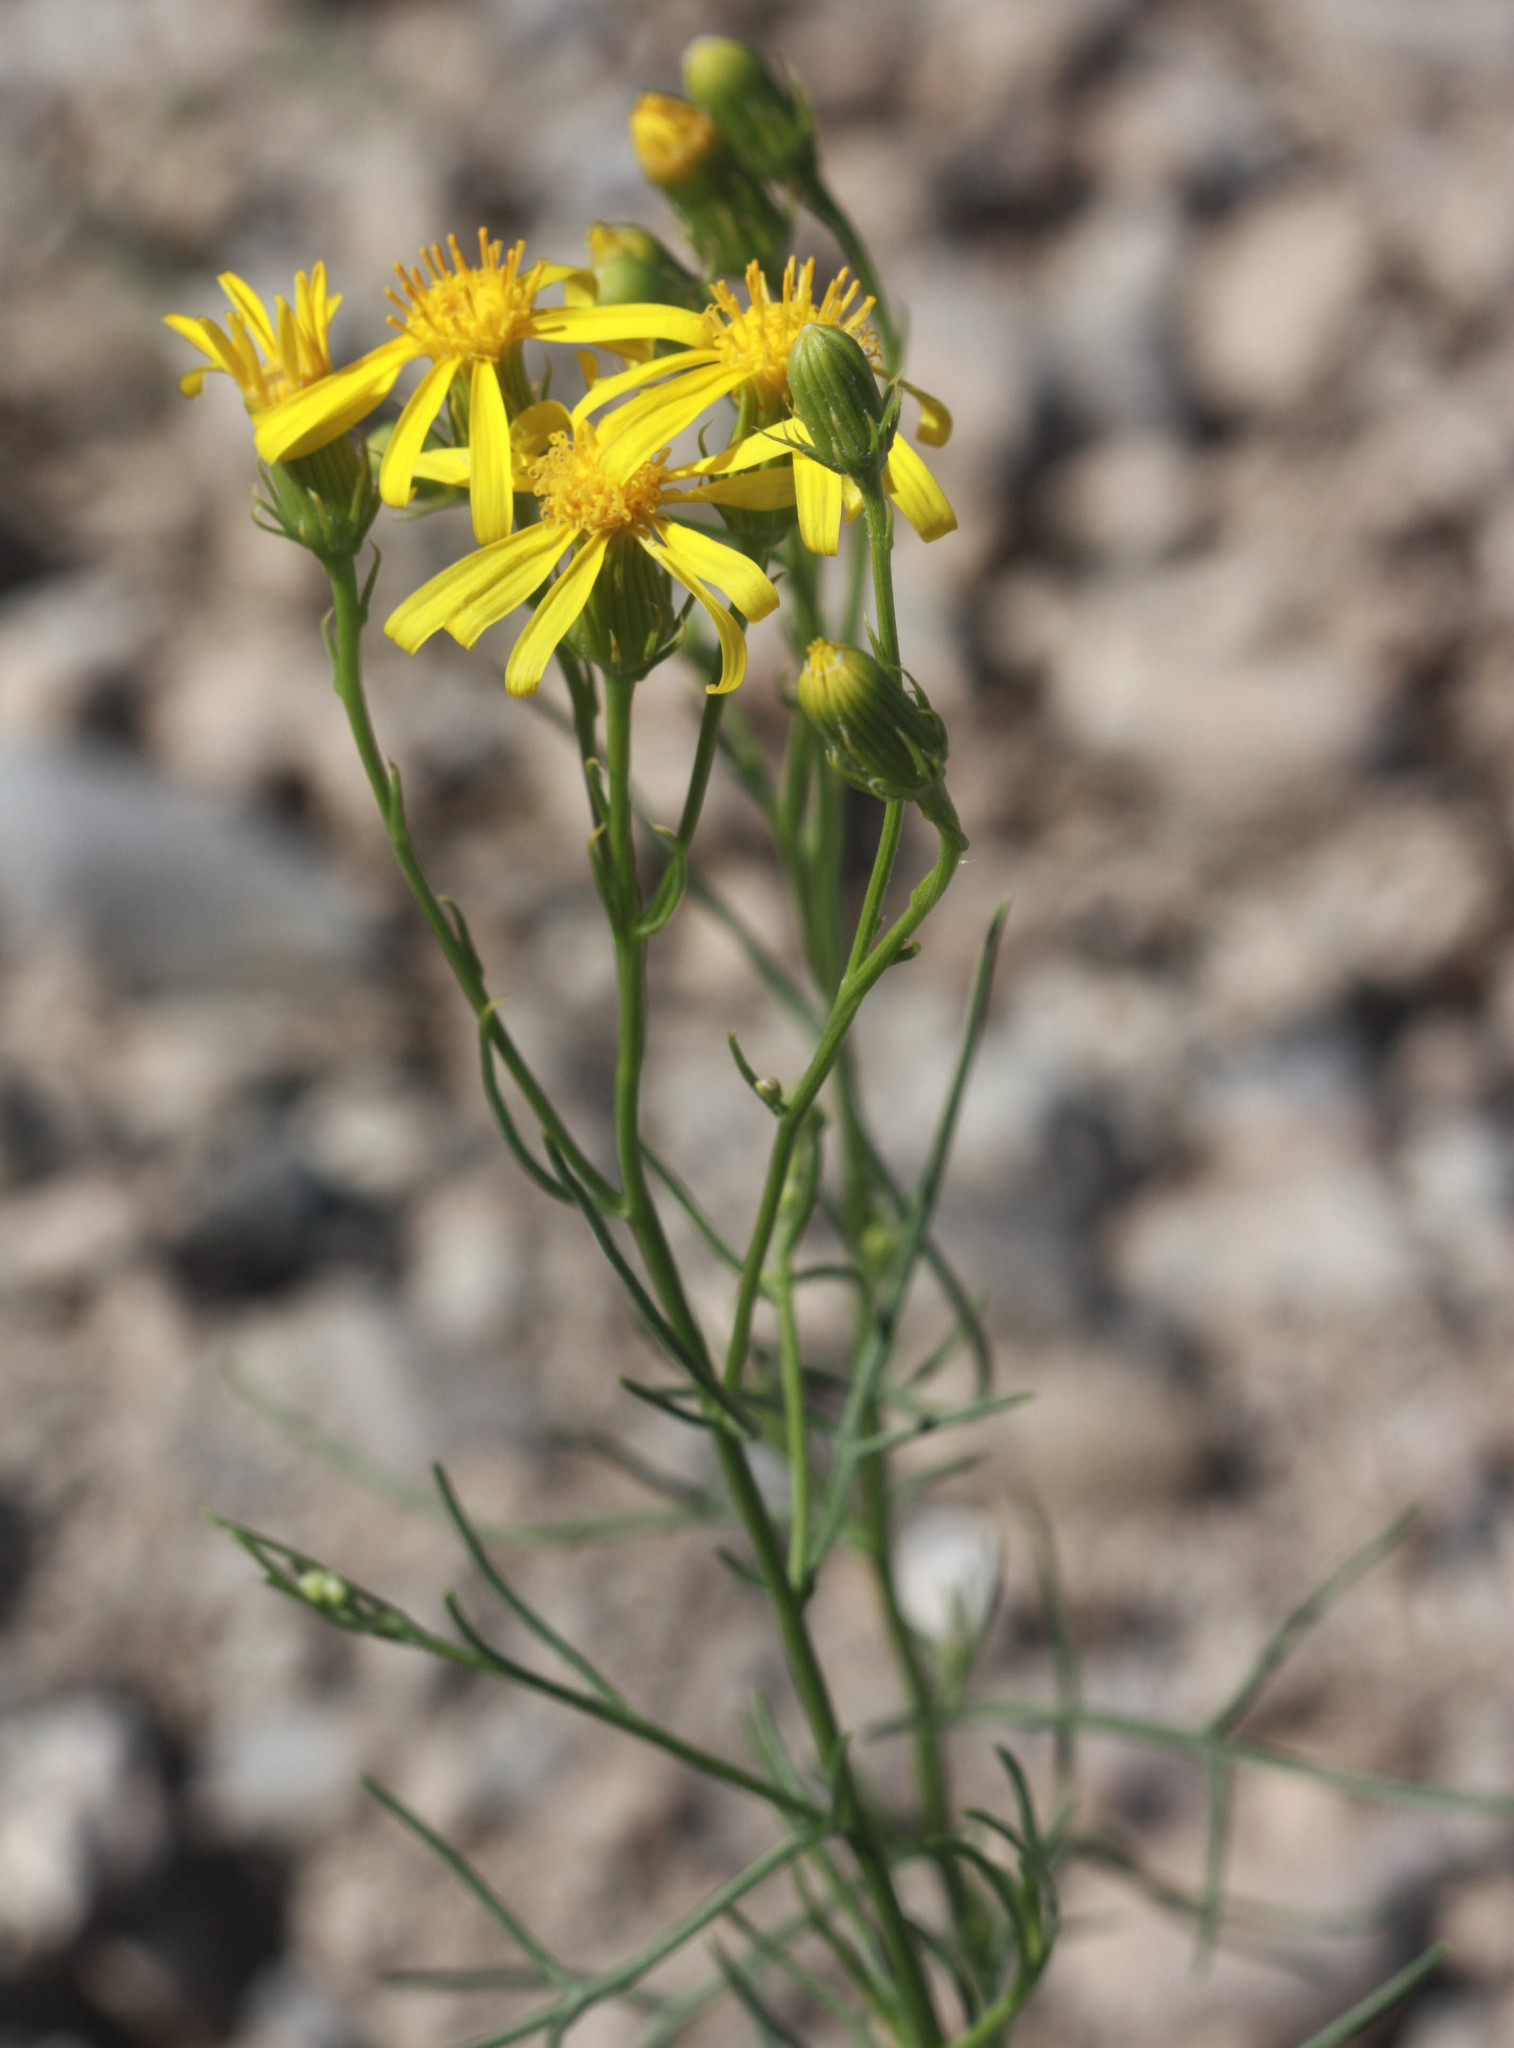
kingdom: Plantae
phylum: Tracheophyta
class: Magnoliopsida
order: Asterales
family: Asteraceae
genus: Senecio
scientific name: Senecio flaccidus
